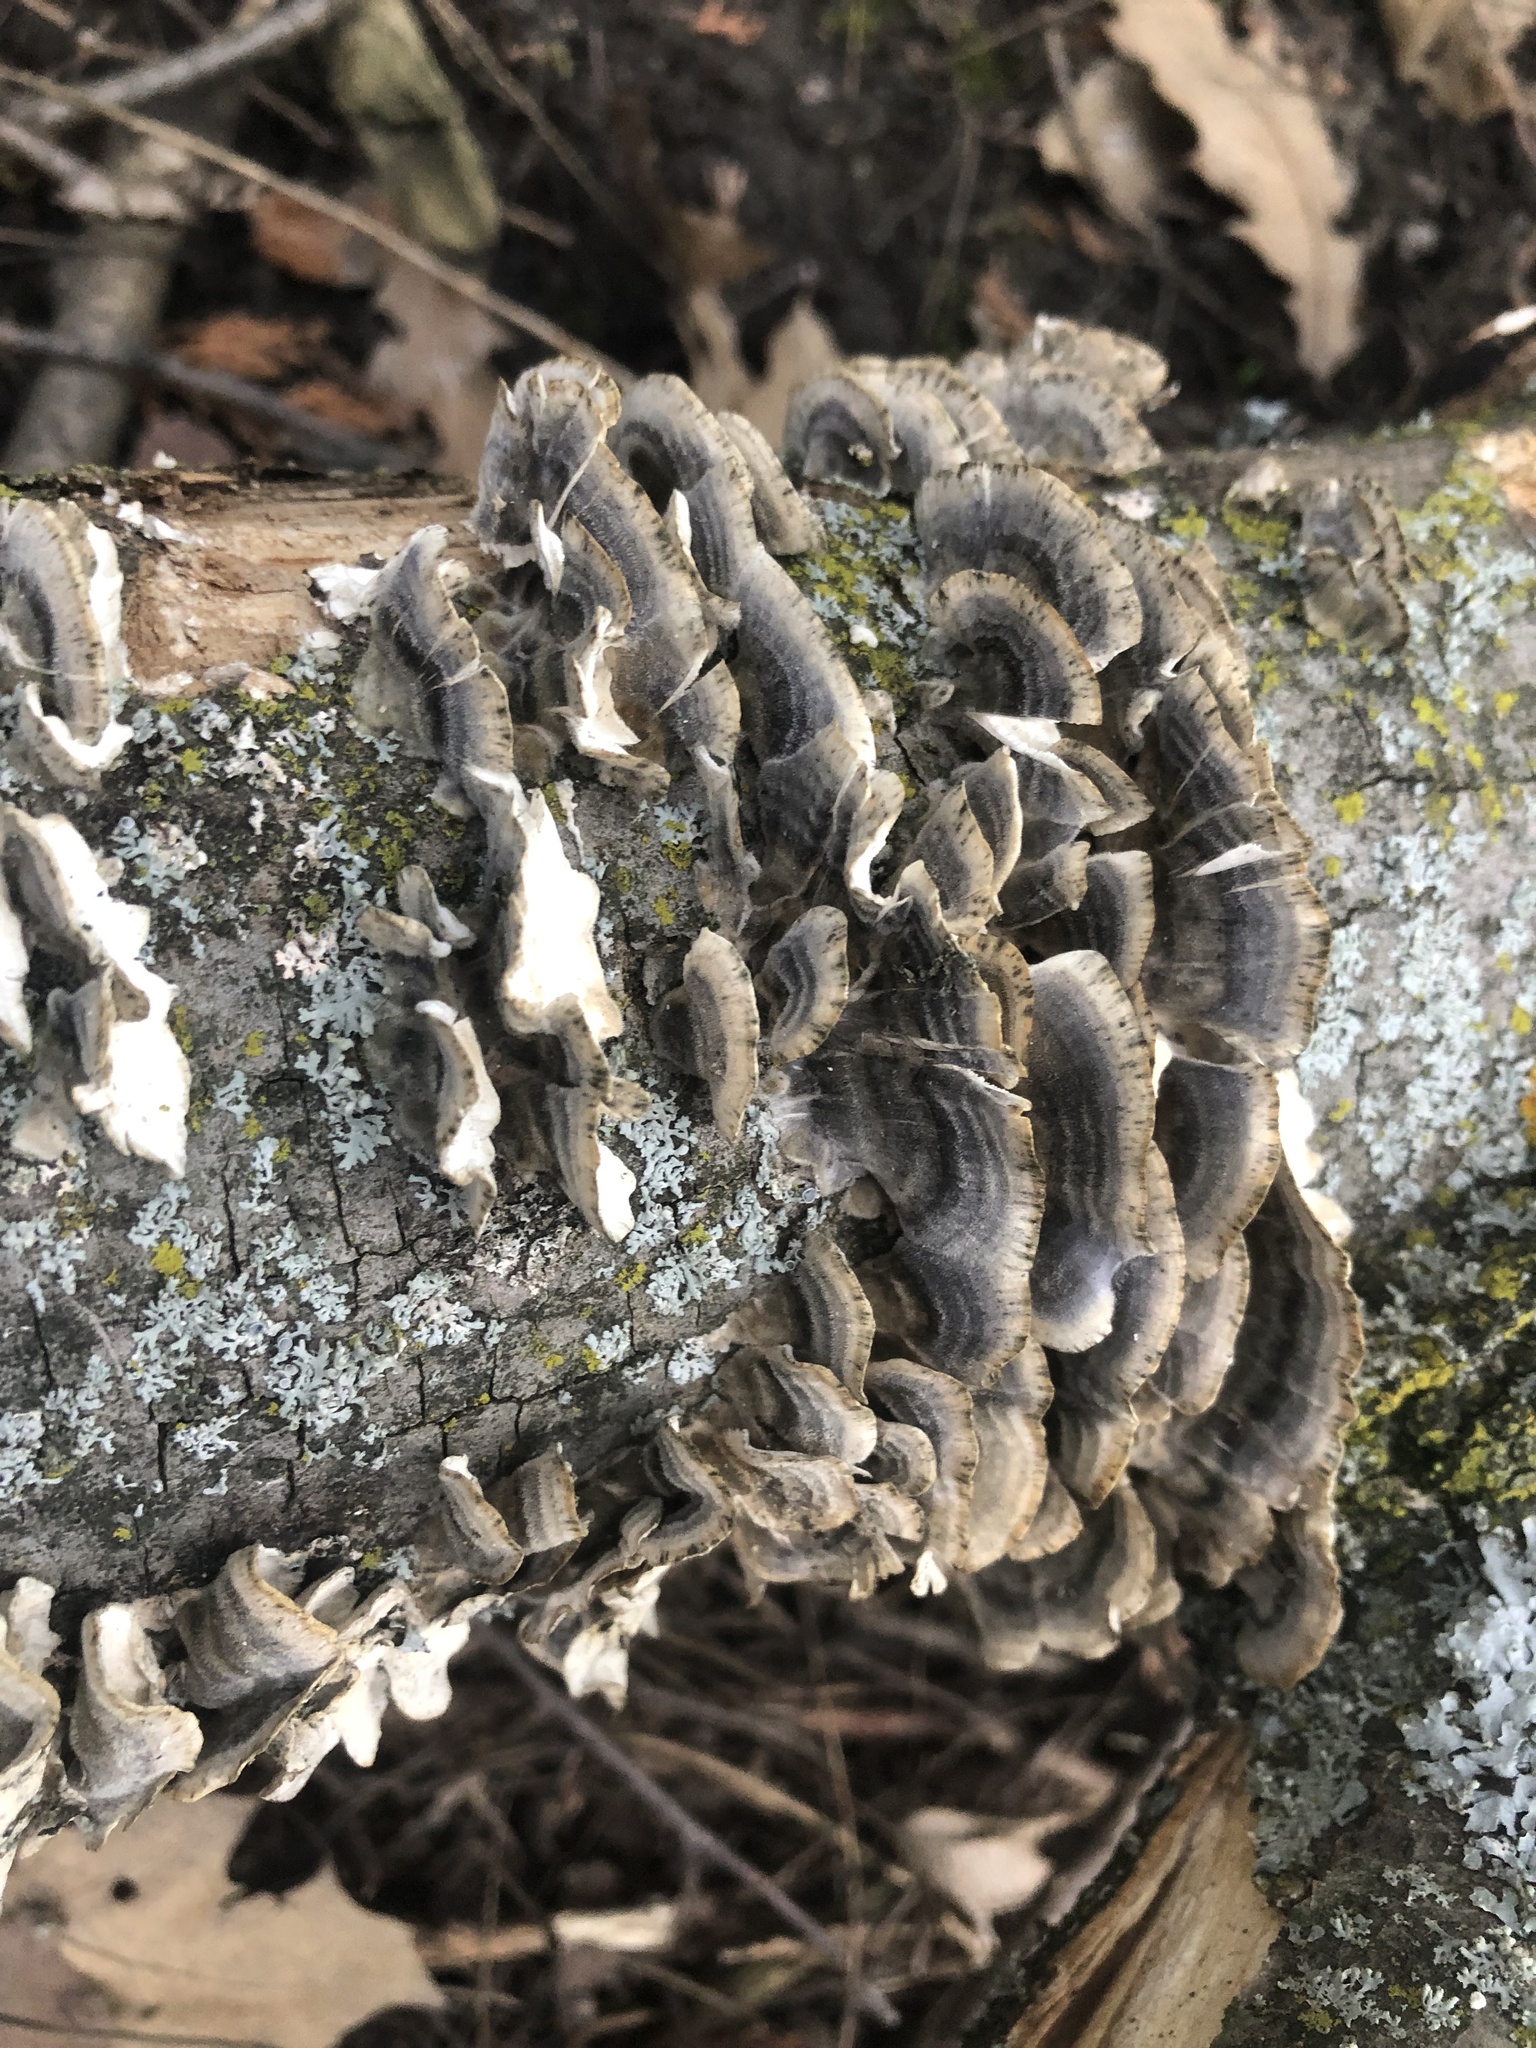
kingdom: Fungi
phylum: Basidiomycota
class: Agaricomycetes
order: Polyporales
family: Polyporaceae
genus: Trametes
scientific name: Trametes versicolor
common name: Turkeytail
